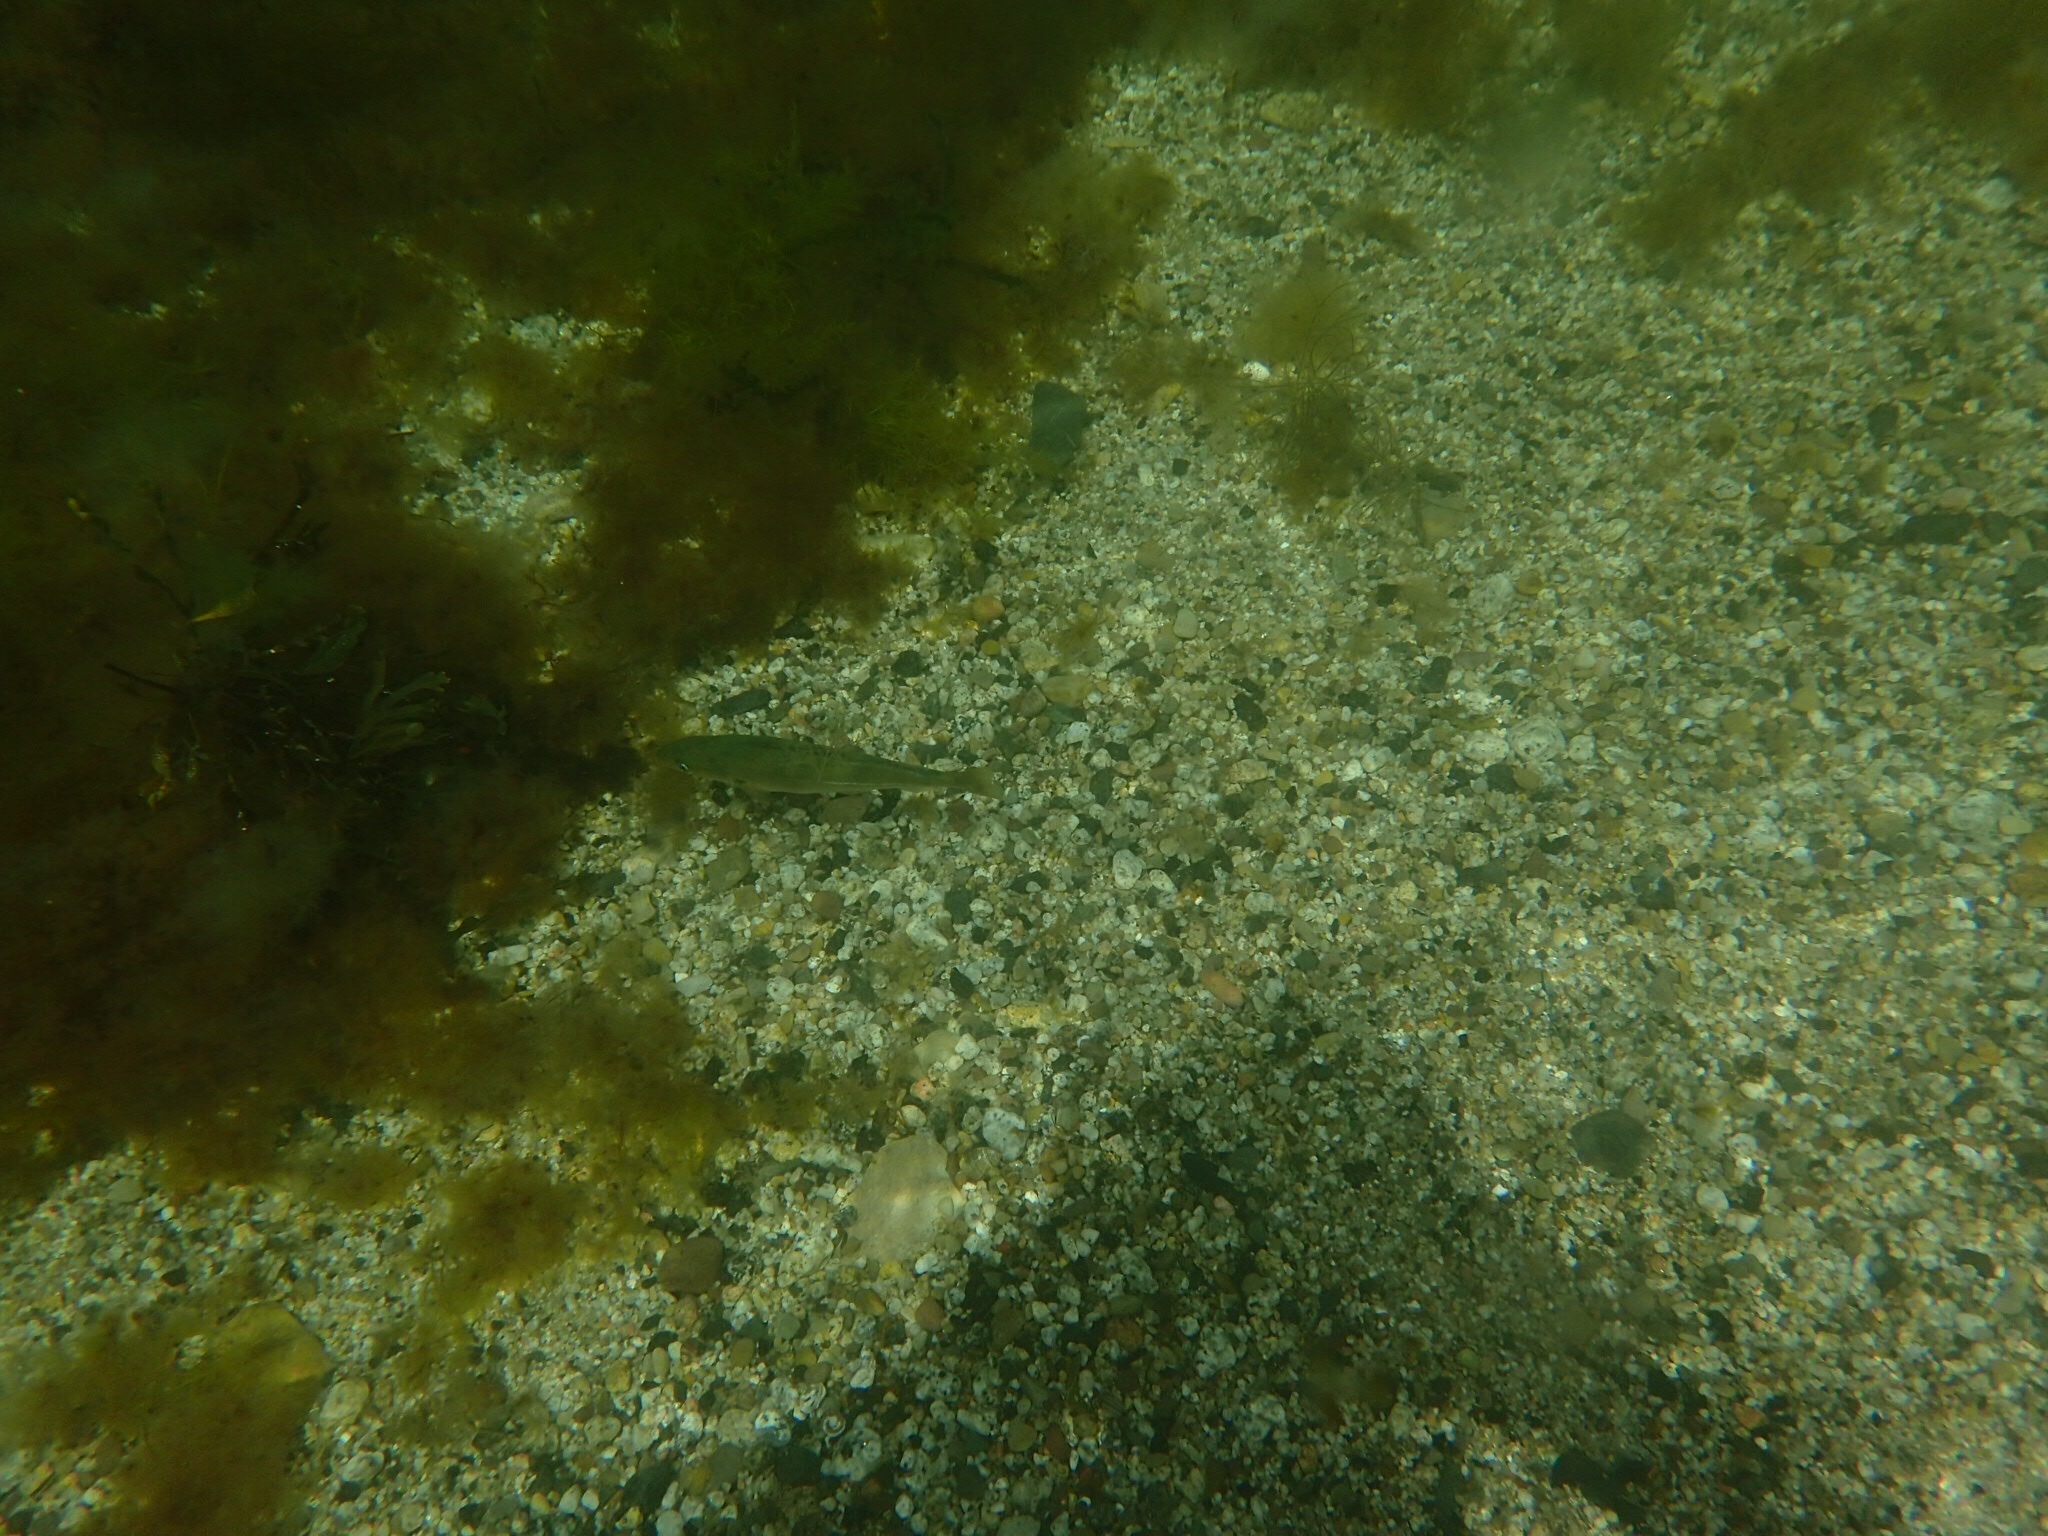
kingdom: Animalia
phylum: Chordata
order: Gadiformes
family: Gadidae
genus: Pollachius
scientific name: Pollachius virens
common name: Saithe
